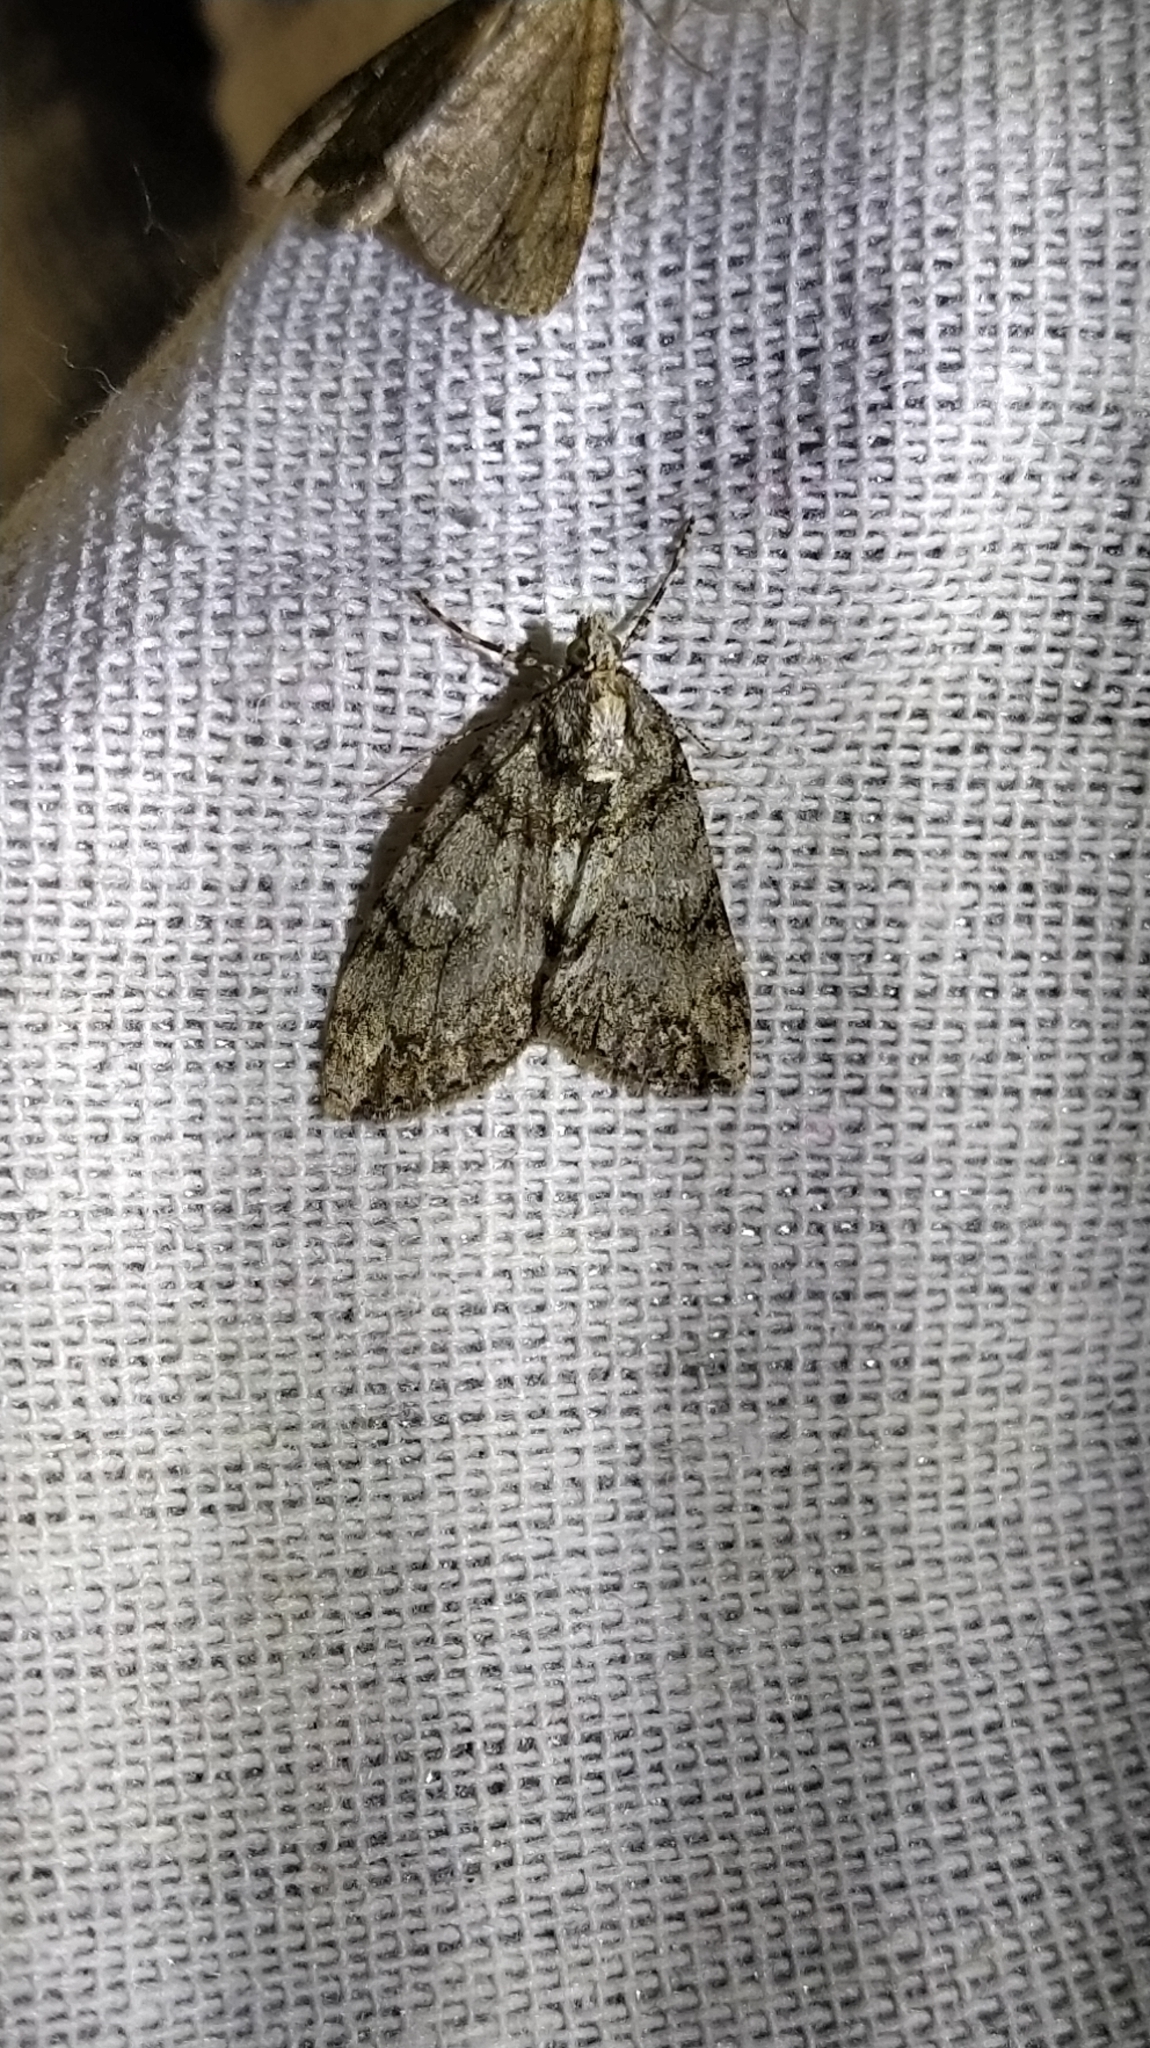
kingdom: Animalia
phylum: Arthropoda
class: Insecta
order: Lepidoptera
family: Geometridae
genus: Pseudocoremia
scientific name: Pseudocoremia suavis
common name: Common forest looper
